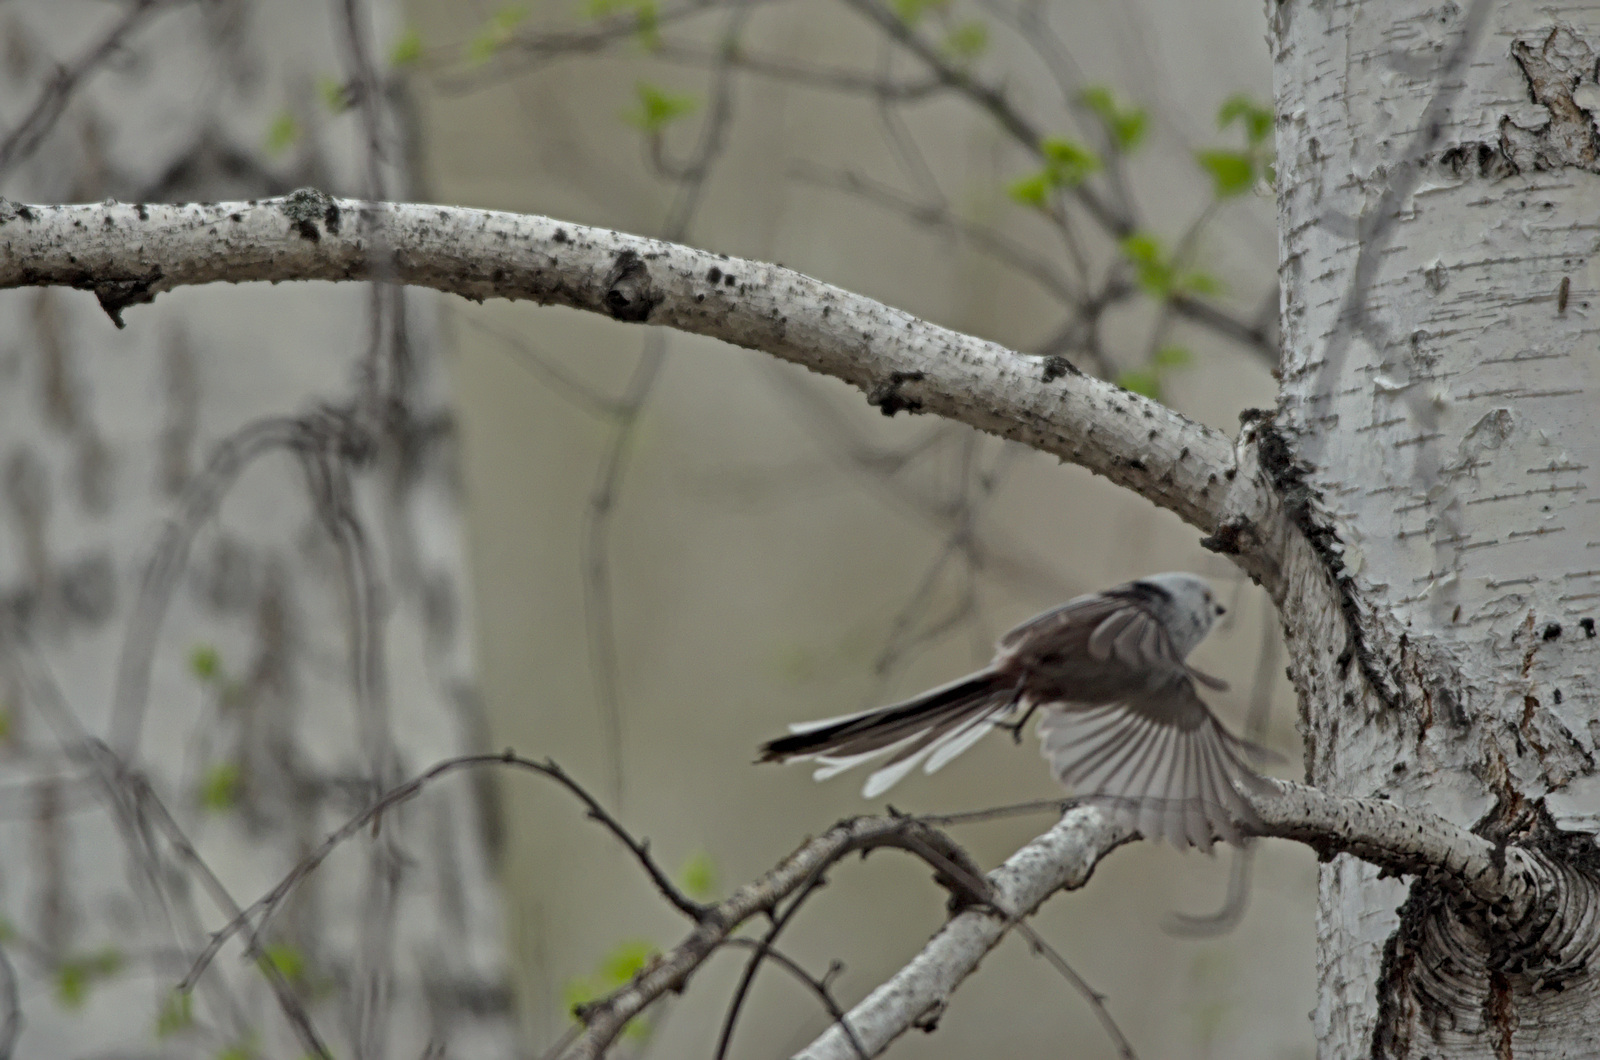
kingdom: Animalia
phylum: Chordata
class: Aves
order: Passeriformes
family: Aegithalidae
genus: Aegithalos
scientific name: Aegithalos caudatus
